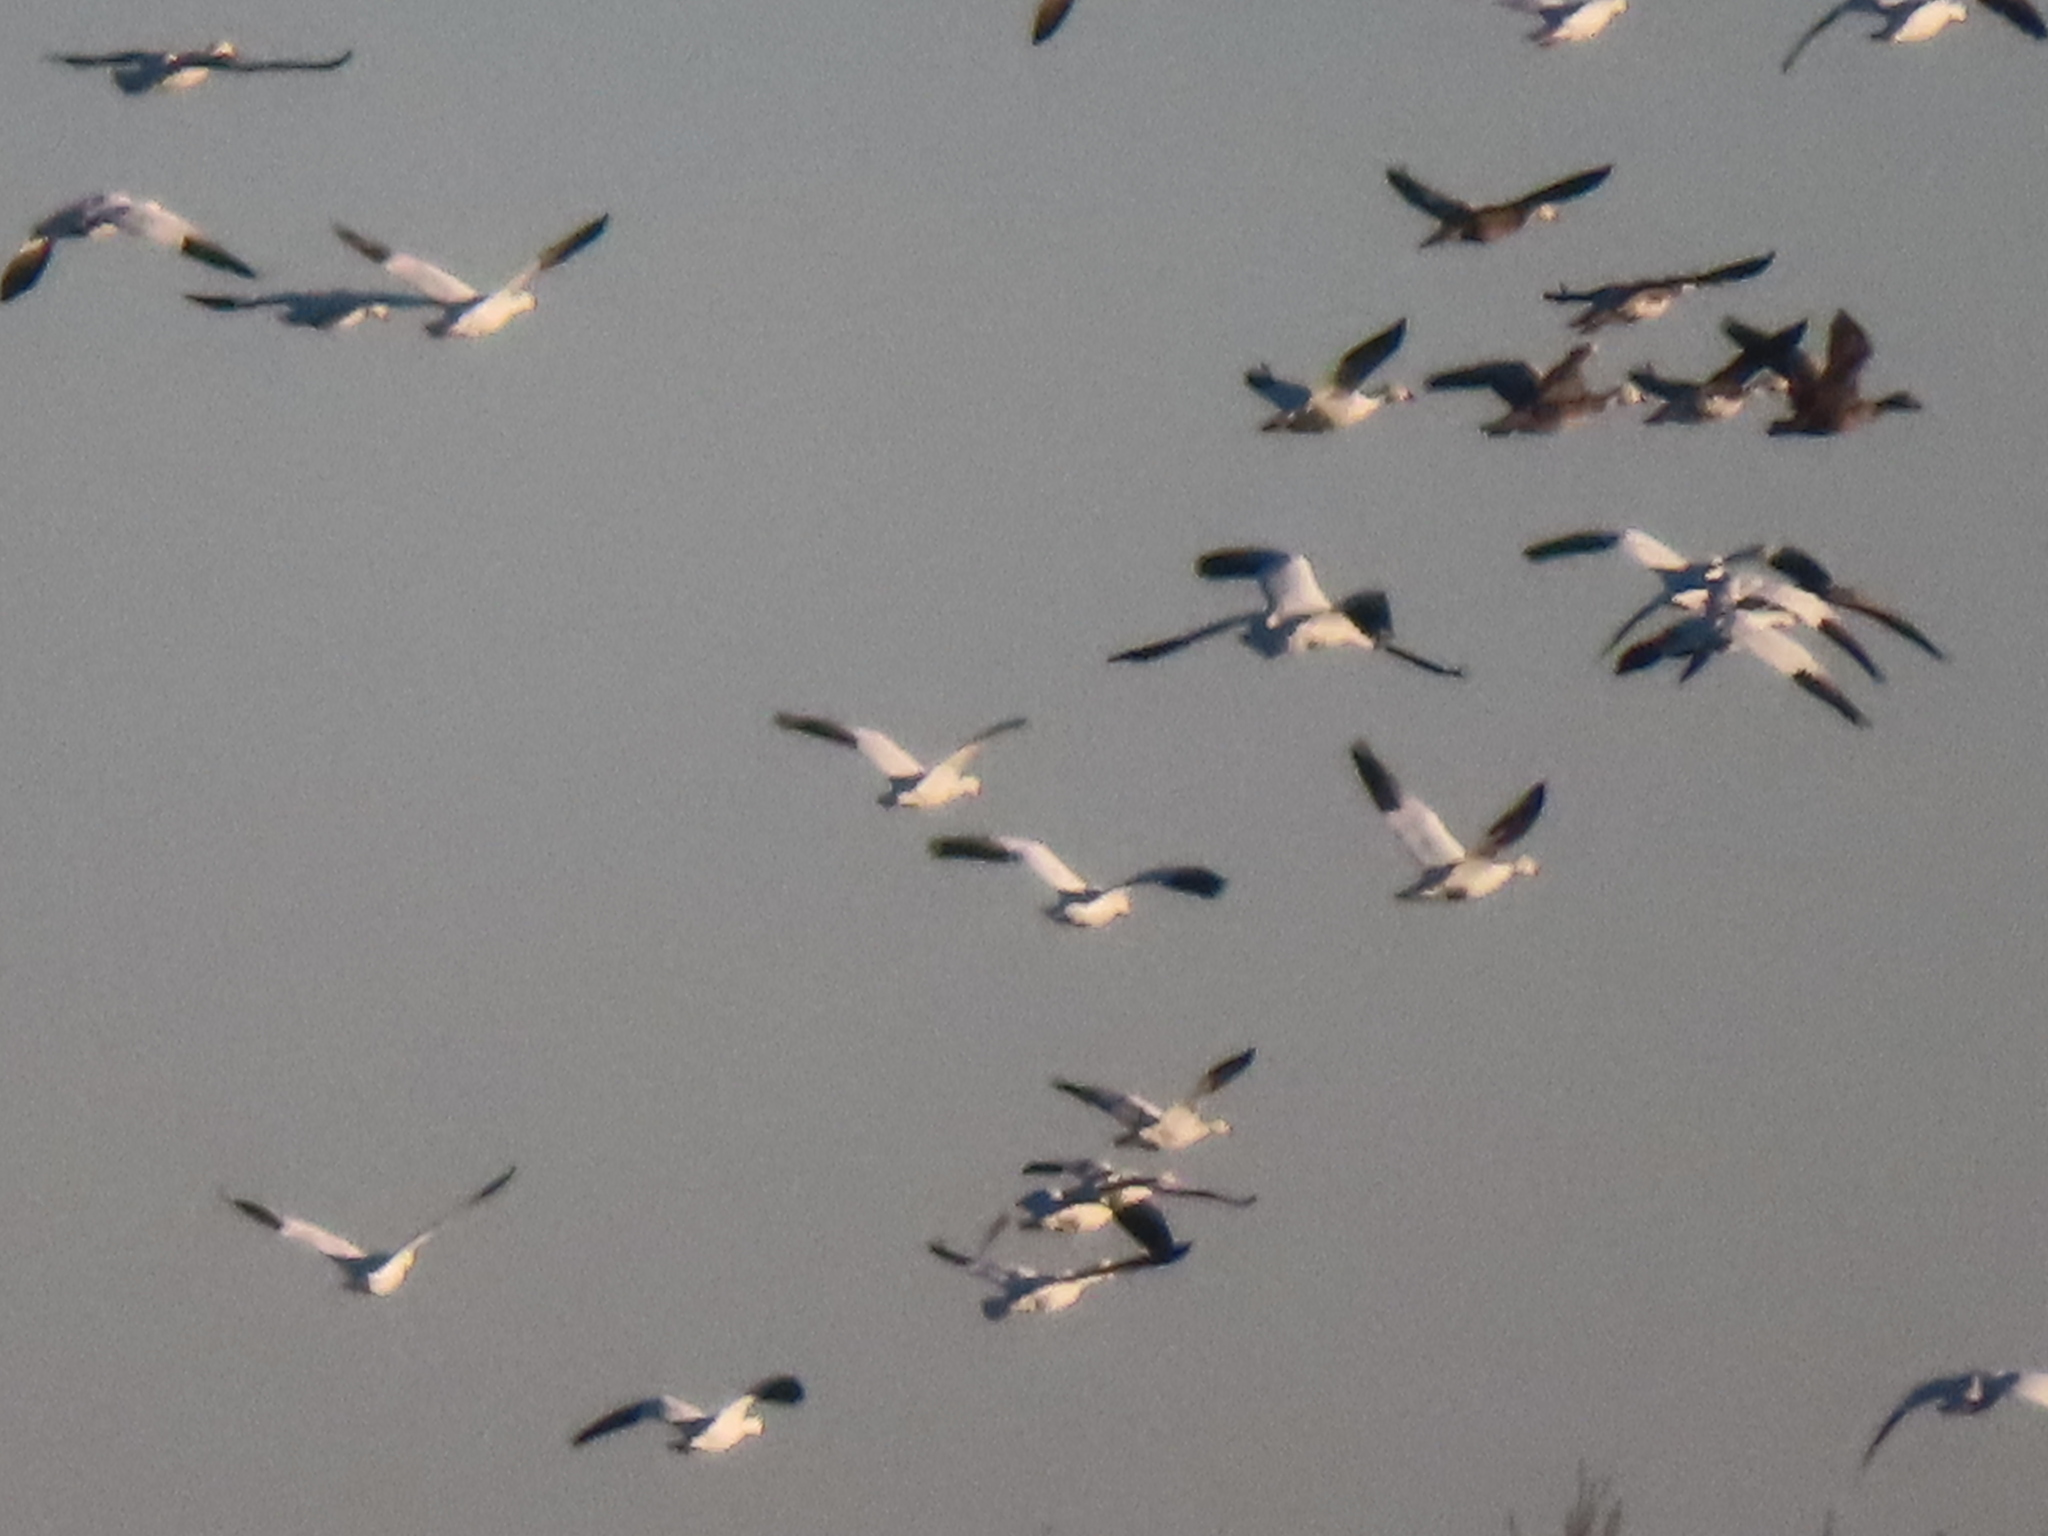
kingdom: Animalia
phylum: Chordata
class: Aves
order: Anseriformes
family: Anatidae
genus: Anser
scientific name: Anser caerulescens
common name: Snow goose
